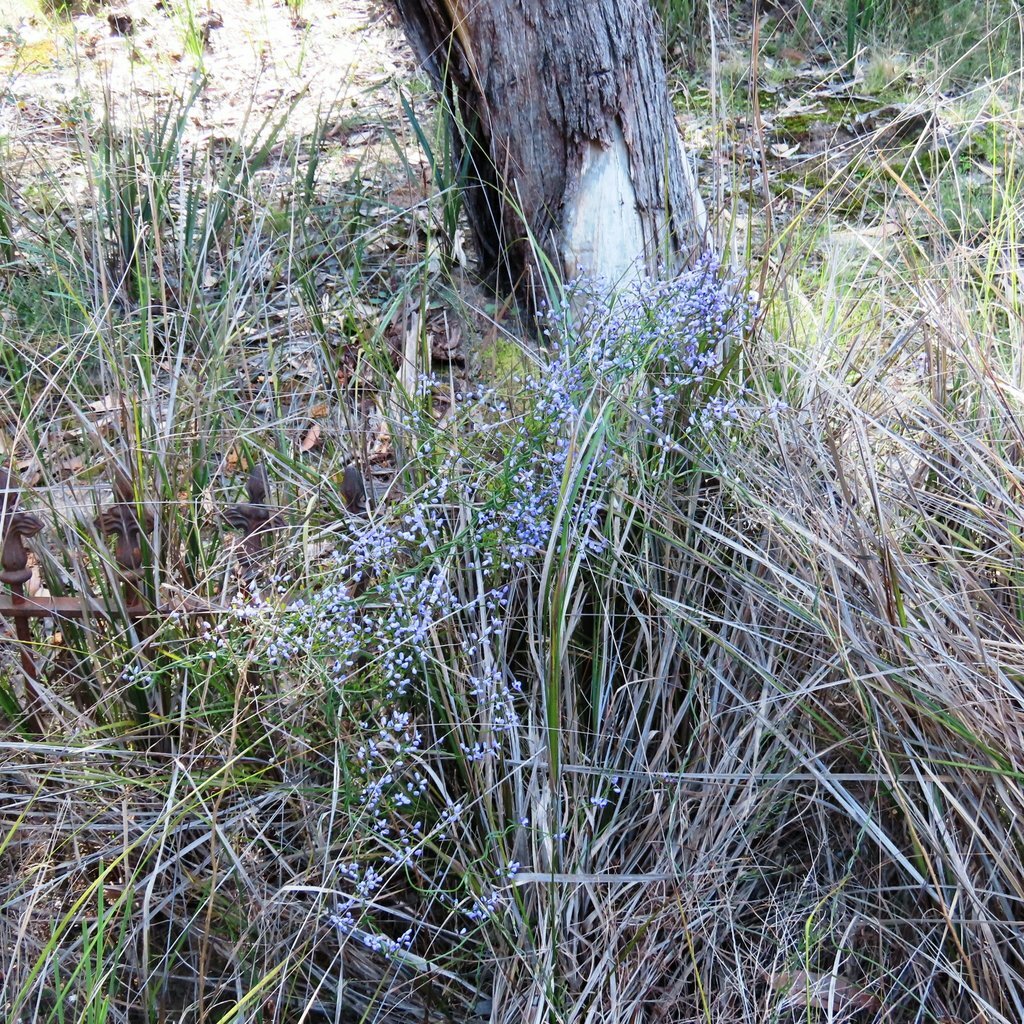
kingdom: Plantae
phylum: Tracheophyta
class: Magnoliopsida
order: Fabales
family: Polygalaceae
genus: Comesperma
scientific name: Comesperma volubile
